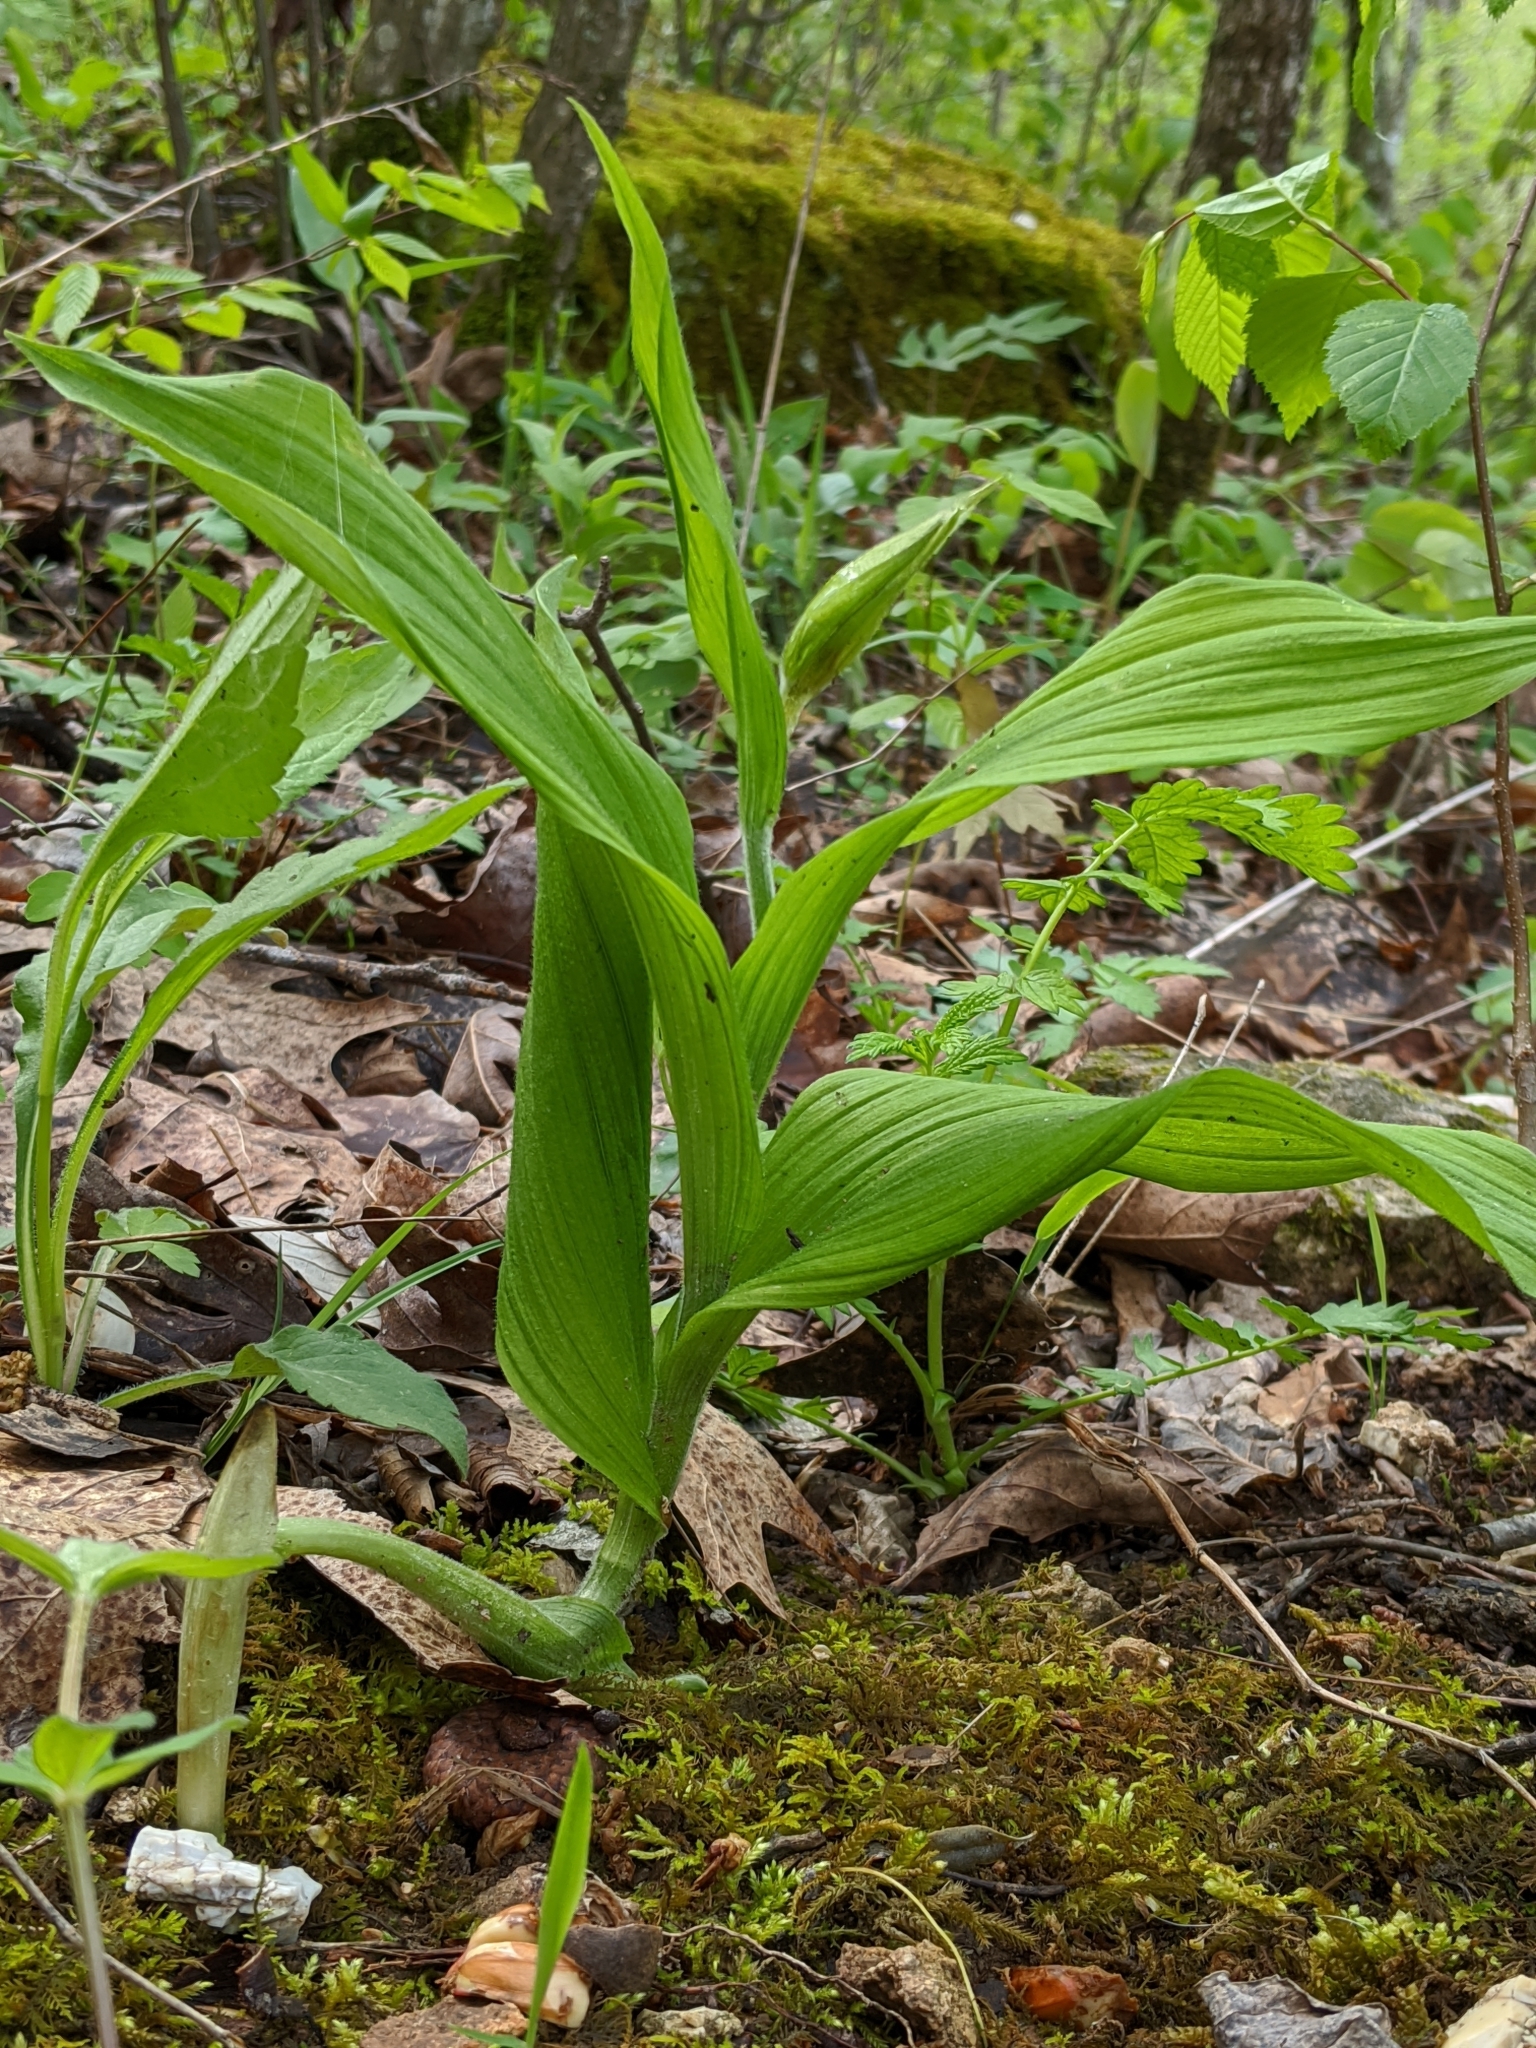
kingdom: Plantae
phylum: Tracheophyta
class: Liliopsida
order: Asparagales
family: Orchidaceae
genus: Cypripedium
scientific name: Cypripedium parviflorum
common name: American yellow lady's-slipper
